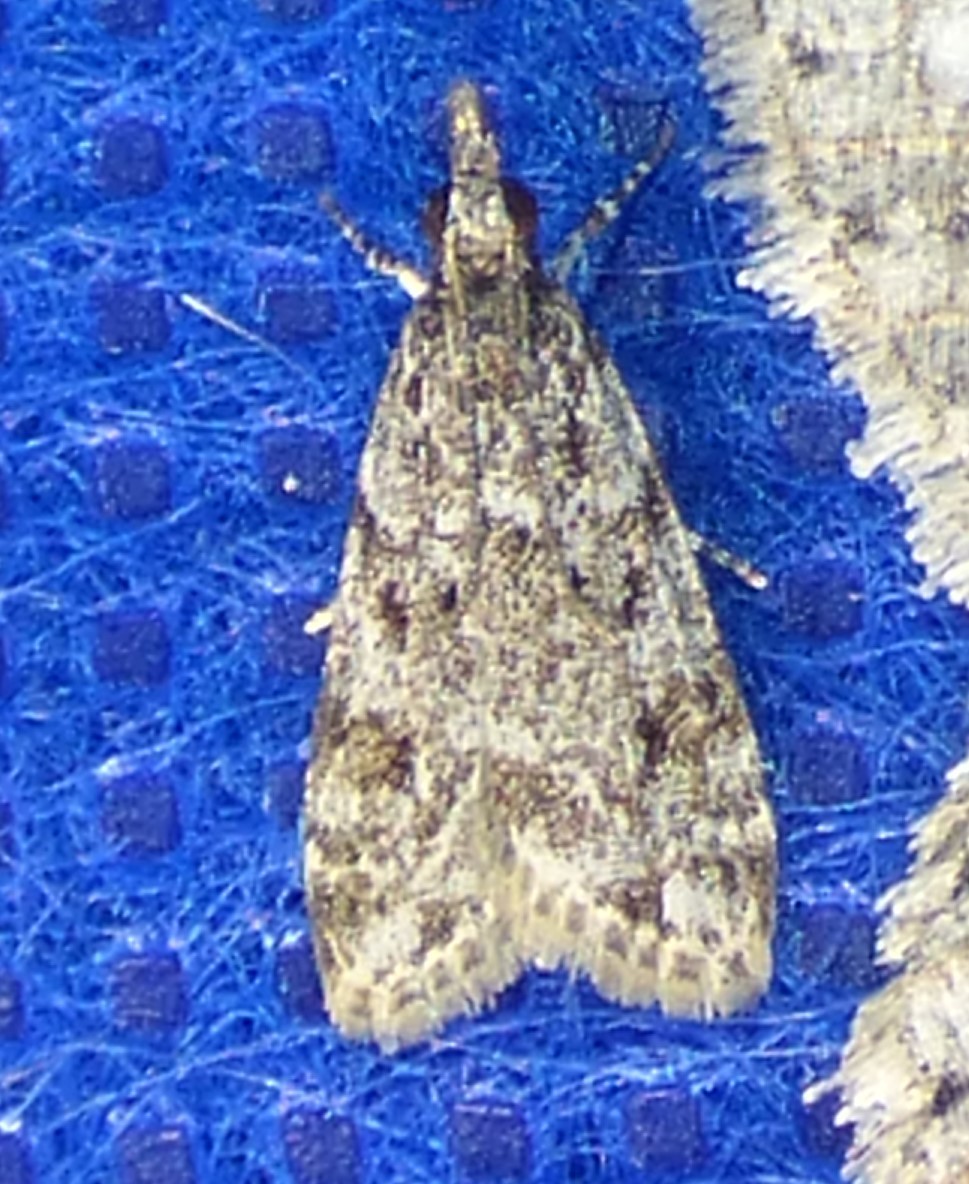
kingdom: Animalia
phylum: Arthropoda
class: Insecta
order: Lepidoptera
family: Crambidae
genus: Eudonia
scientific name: Eudonia heterosalis
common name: Mcdunnough's eudonia
